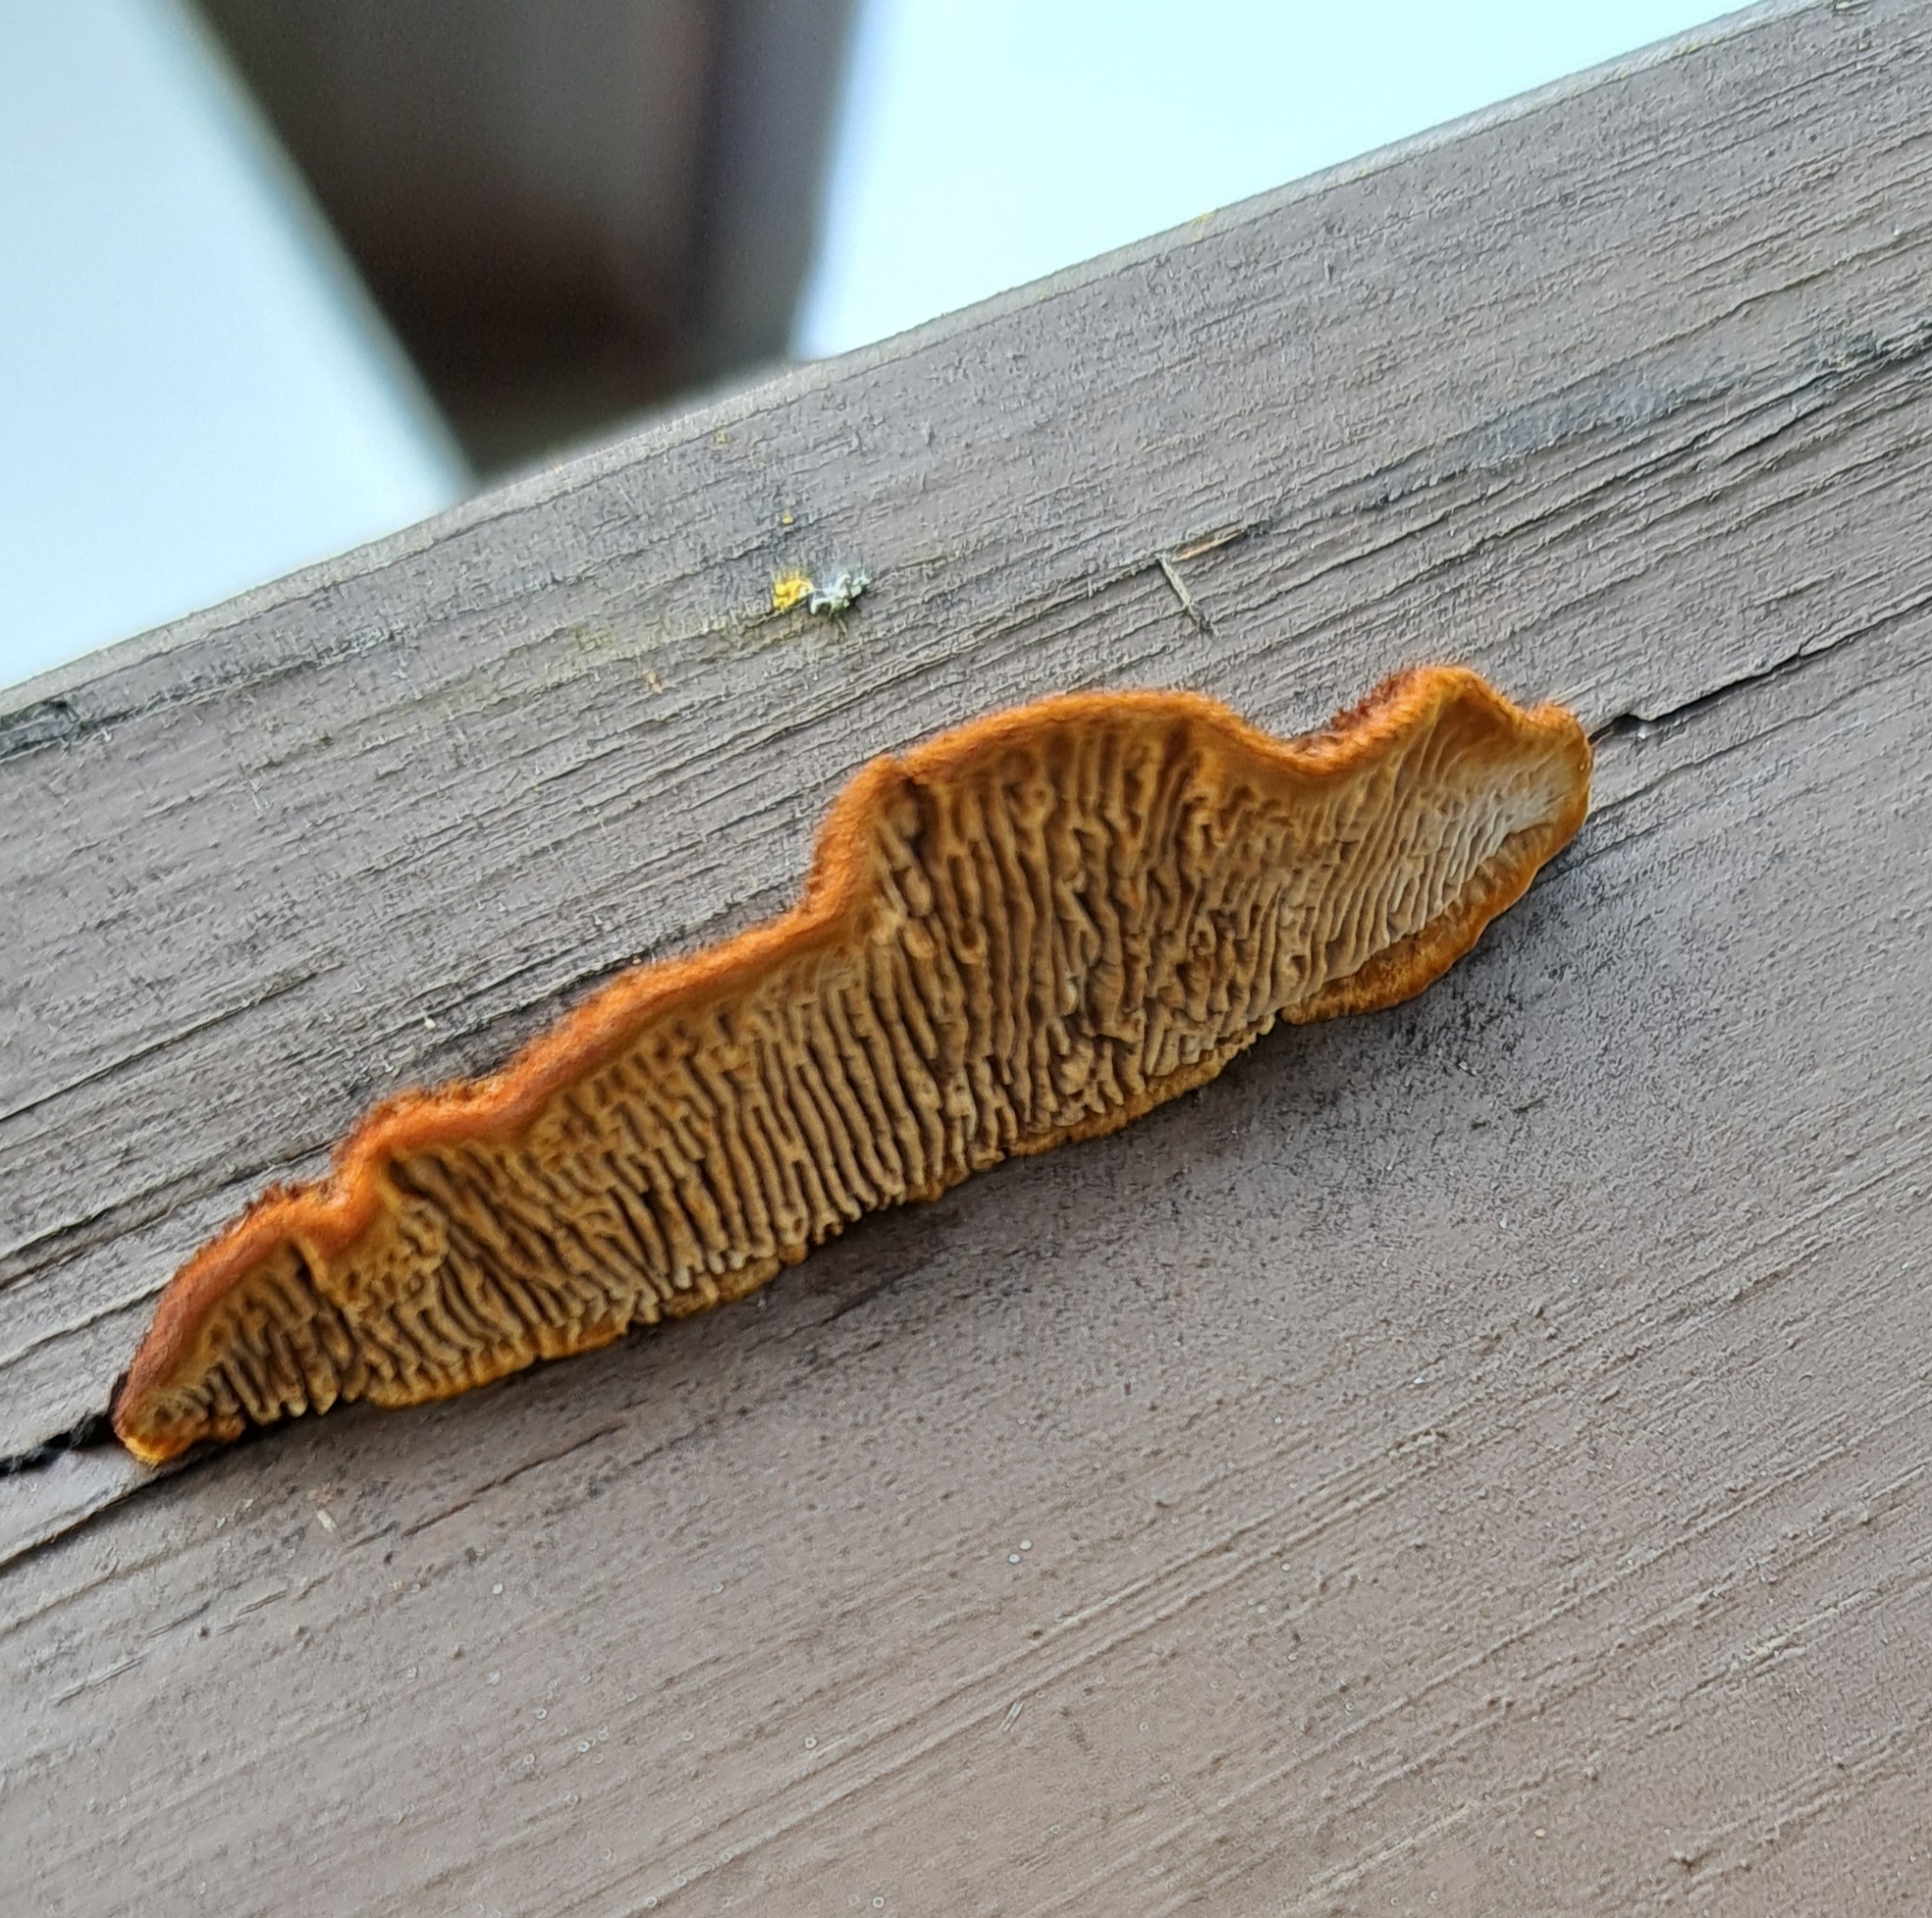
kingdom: Fungi
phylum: Basidiomycota
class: Agaricomycetes
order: Gloeophyllales
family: Gloeophyllaceae
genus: Gloeophyllum
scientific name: Gloeophyllum sepiarium
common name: Conifer mazegill
